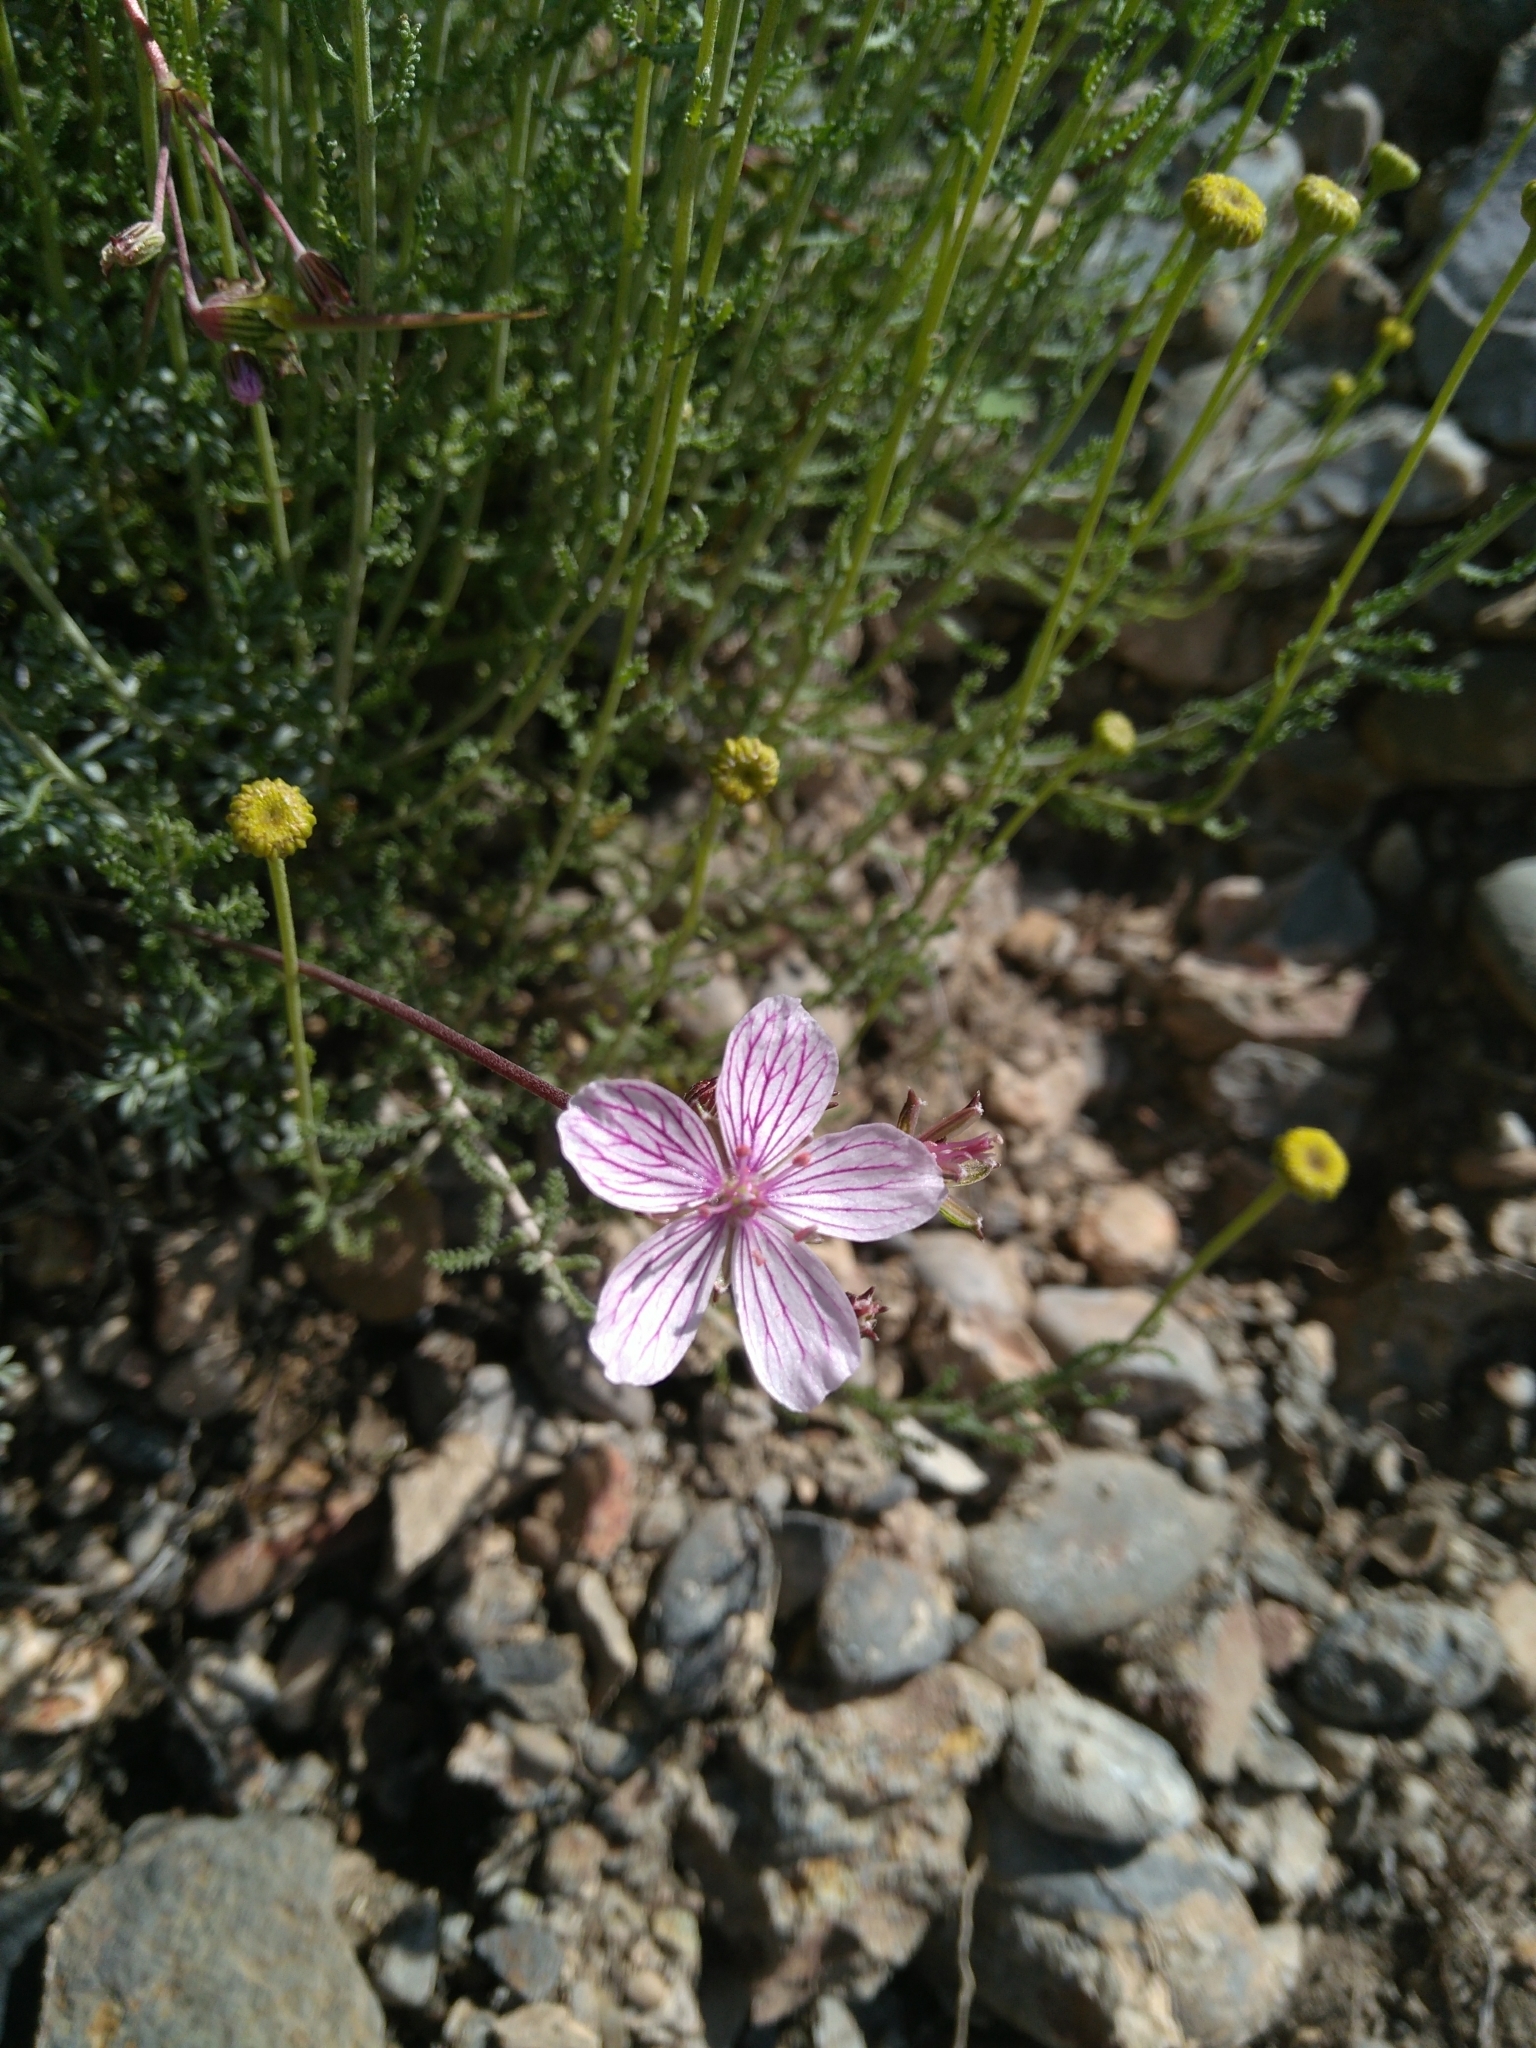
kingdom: Plantae
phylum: Tracheophyta
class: Magnoliopsida
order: Geraniales
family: Geraniaceae
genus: Erodium
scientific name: Erodium rupestre
